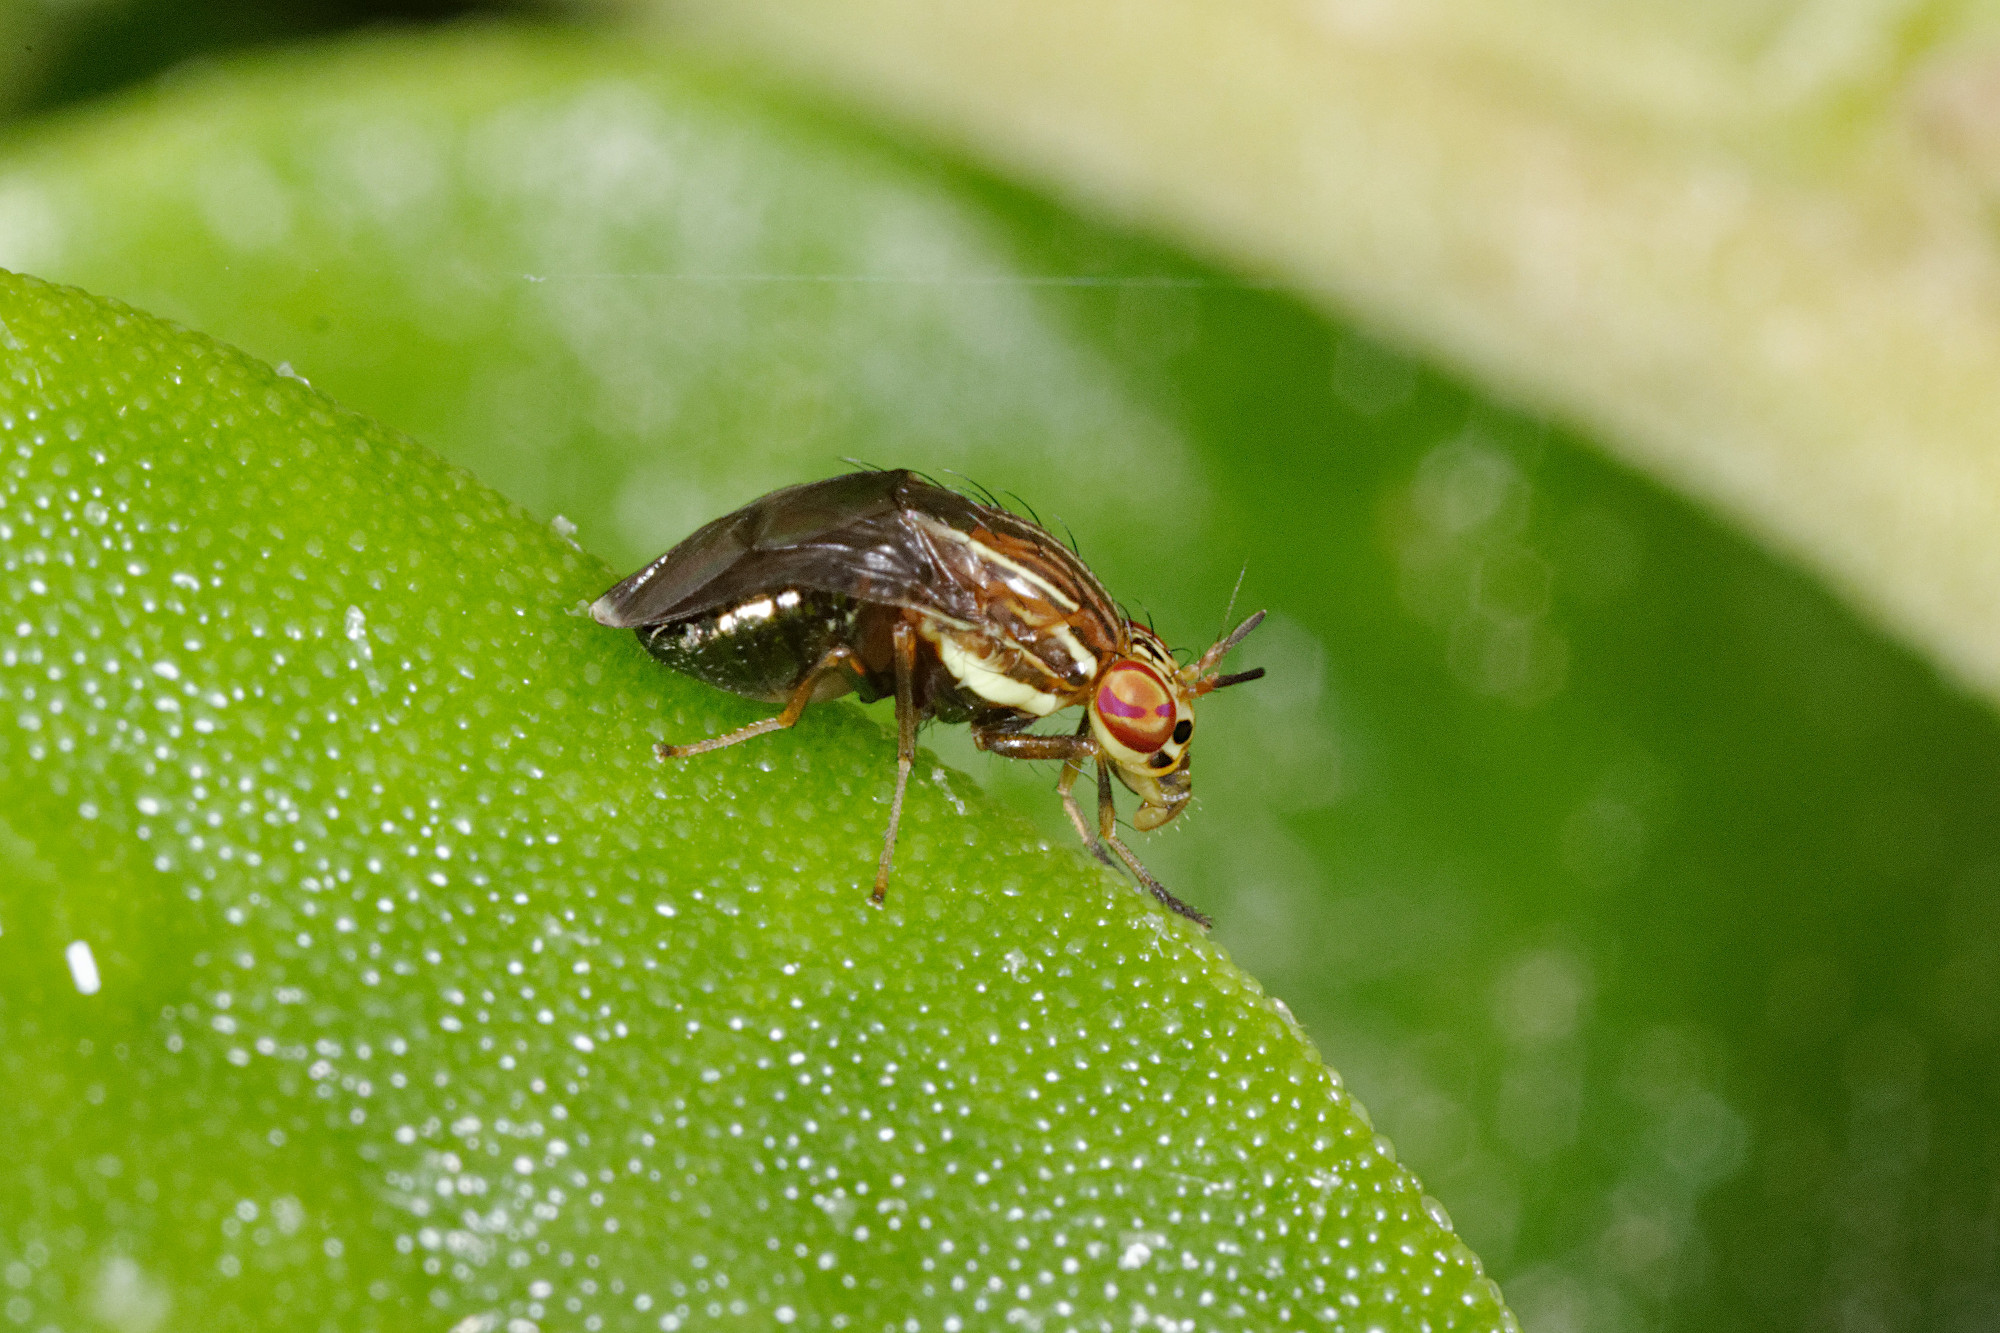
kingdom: Animalia
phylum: Arthropoda
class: Insecta
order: Diptera
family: Lauxaniidae
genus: Steganopsis
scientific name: Steganopsis melanogaster
